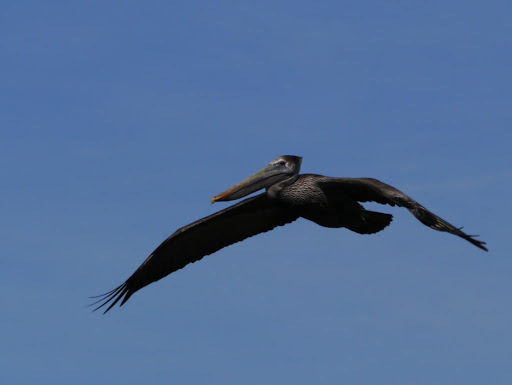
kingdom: Animalia
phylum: Chordata
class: Aves
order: Pelecaniformes
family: Pelecanidae
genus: Pelecanus
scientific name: Pelecanus occidentalis
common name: Brown pelican
